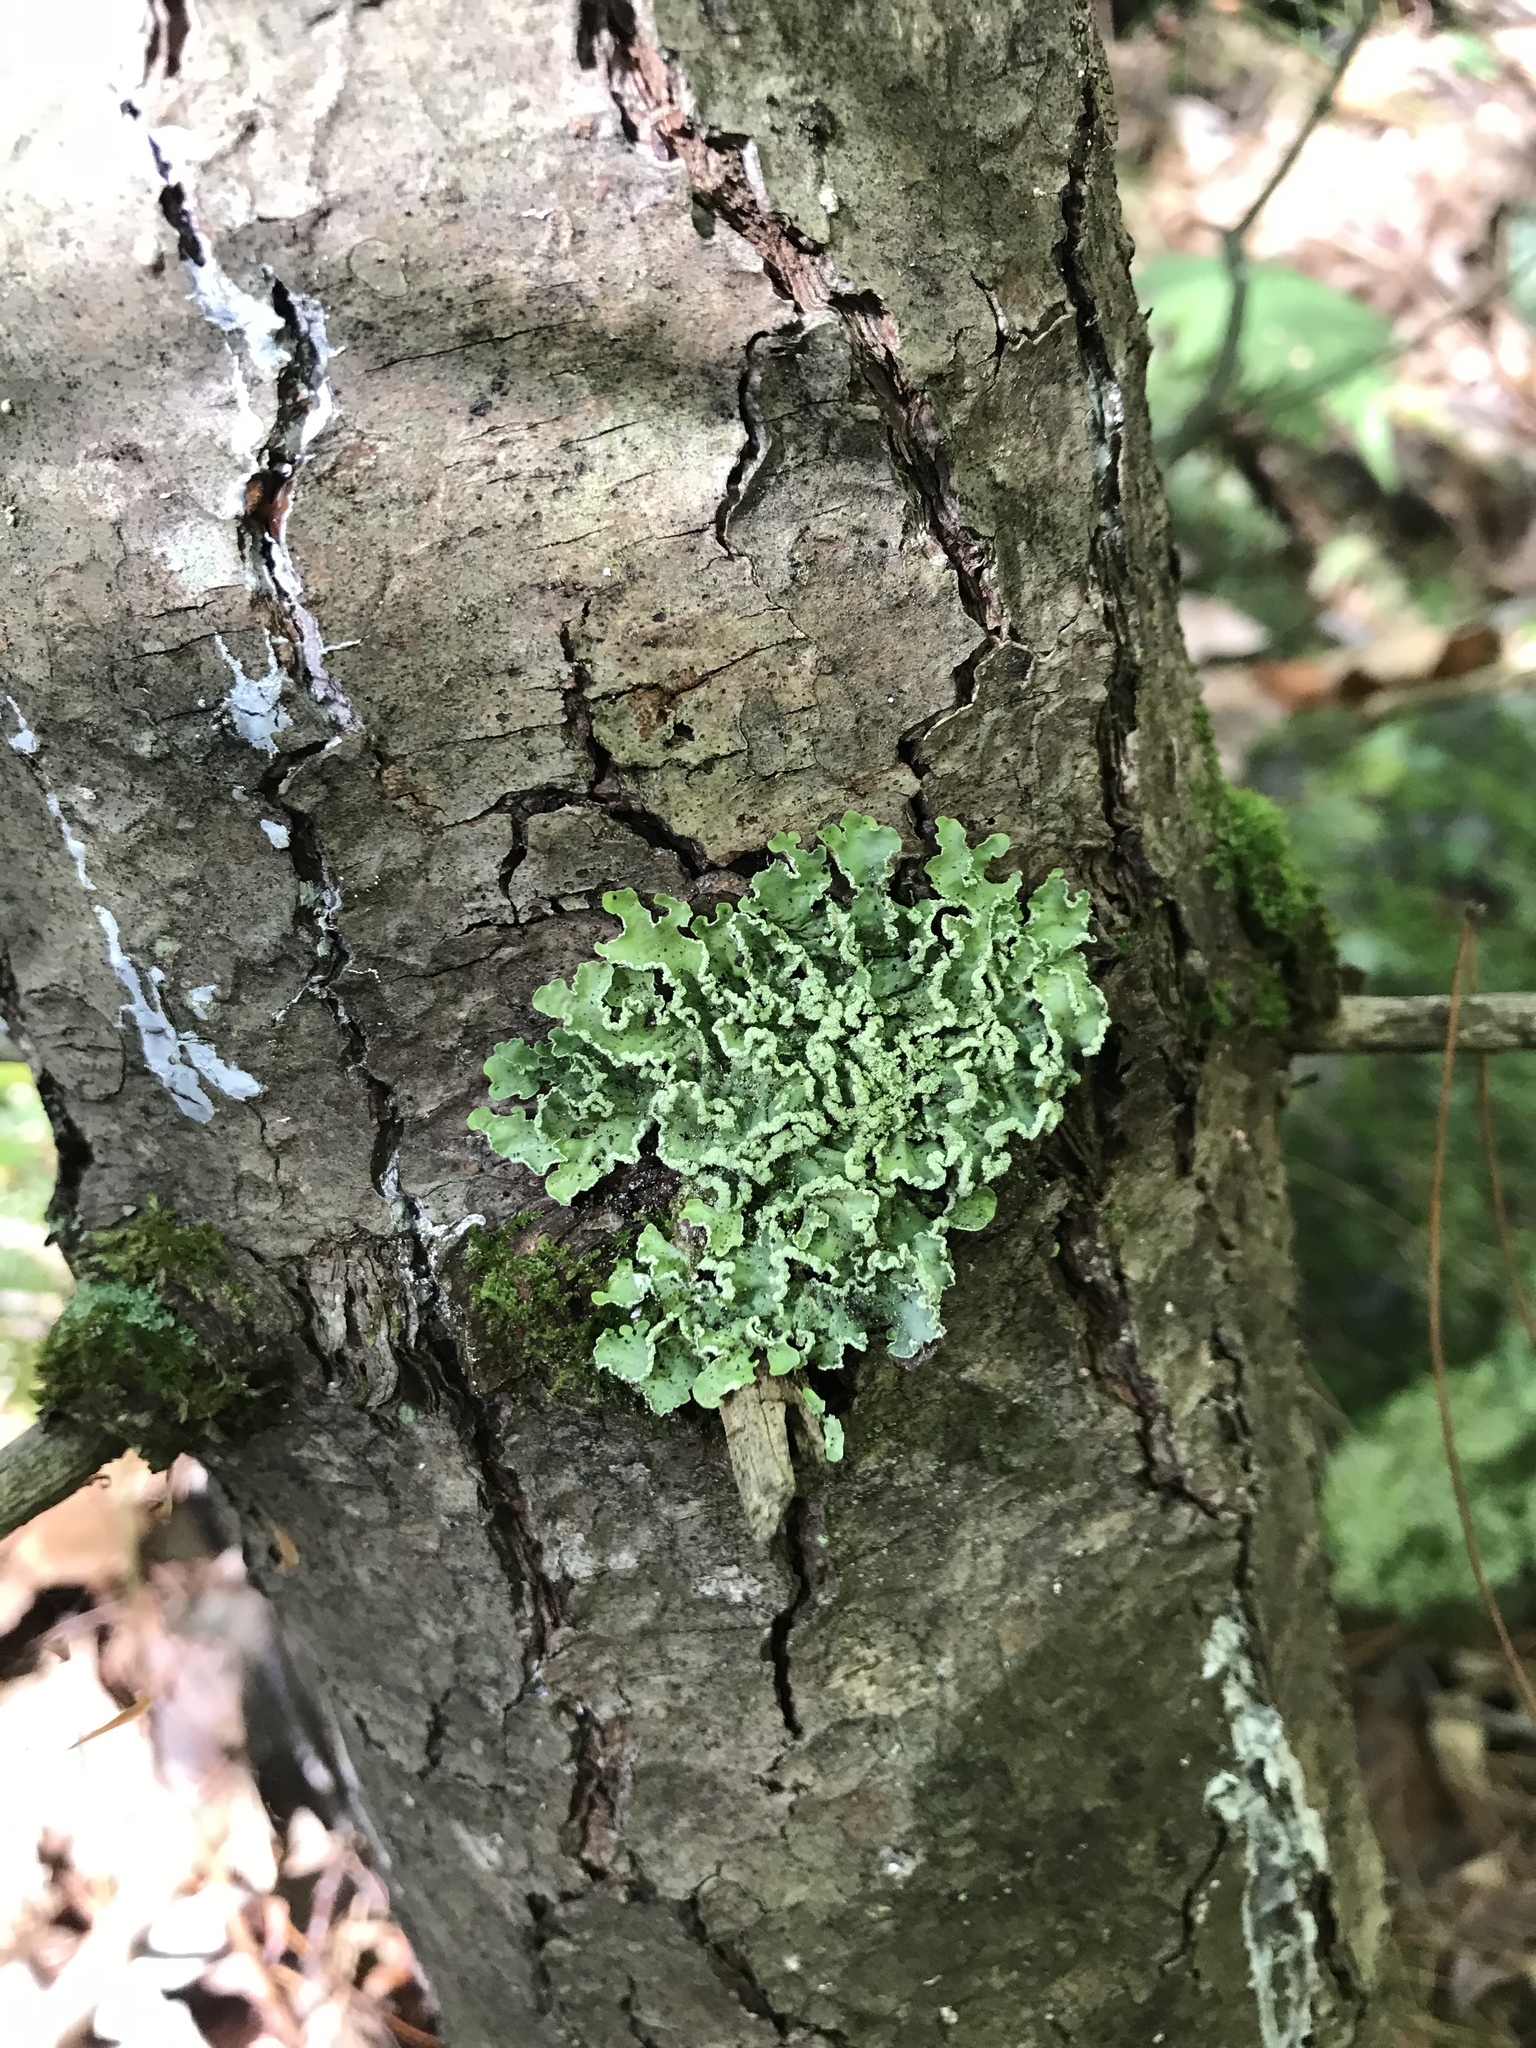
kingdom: Fungi
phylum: Ascomycota
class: Lecanoromycetes
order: Lecanorales
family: Parmeliaceae
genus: Usnocetraria
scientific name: Usnocetraria oakesiana
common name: Yellow ribbon lichen
